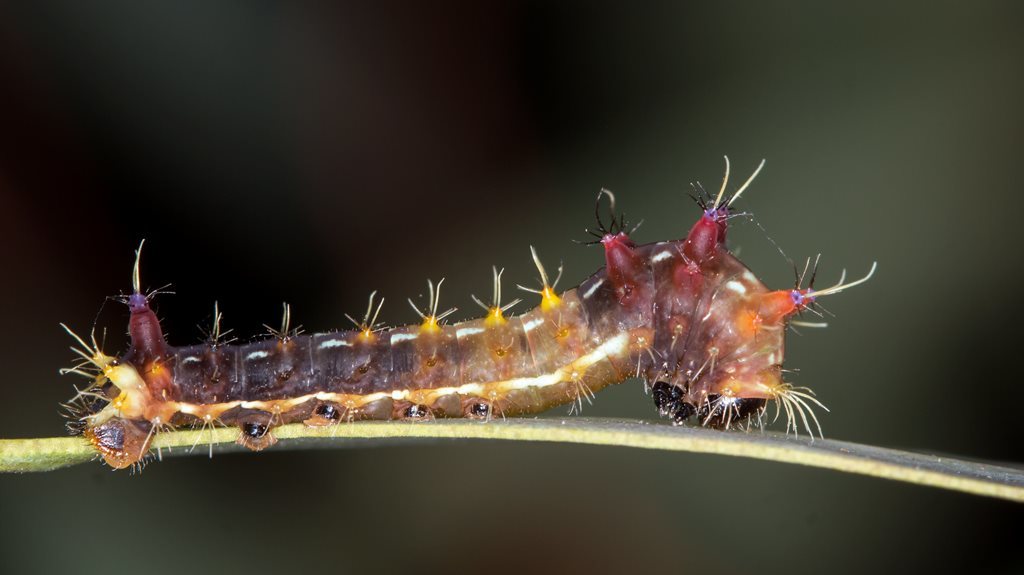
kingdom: Animalia
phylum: Arthropoda
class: Insecta
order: Lepidoptera
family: Saturniidae
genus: Opodiphthera
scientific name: Opodiphthera
